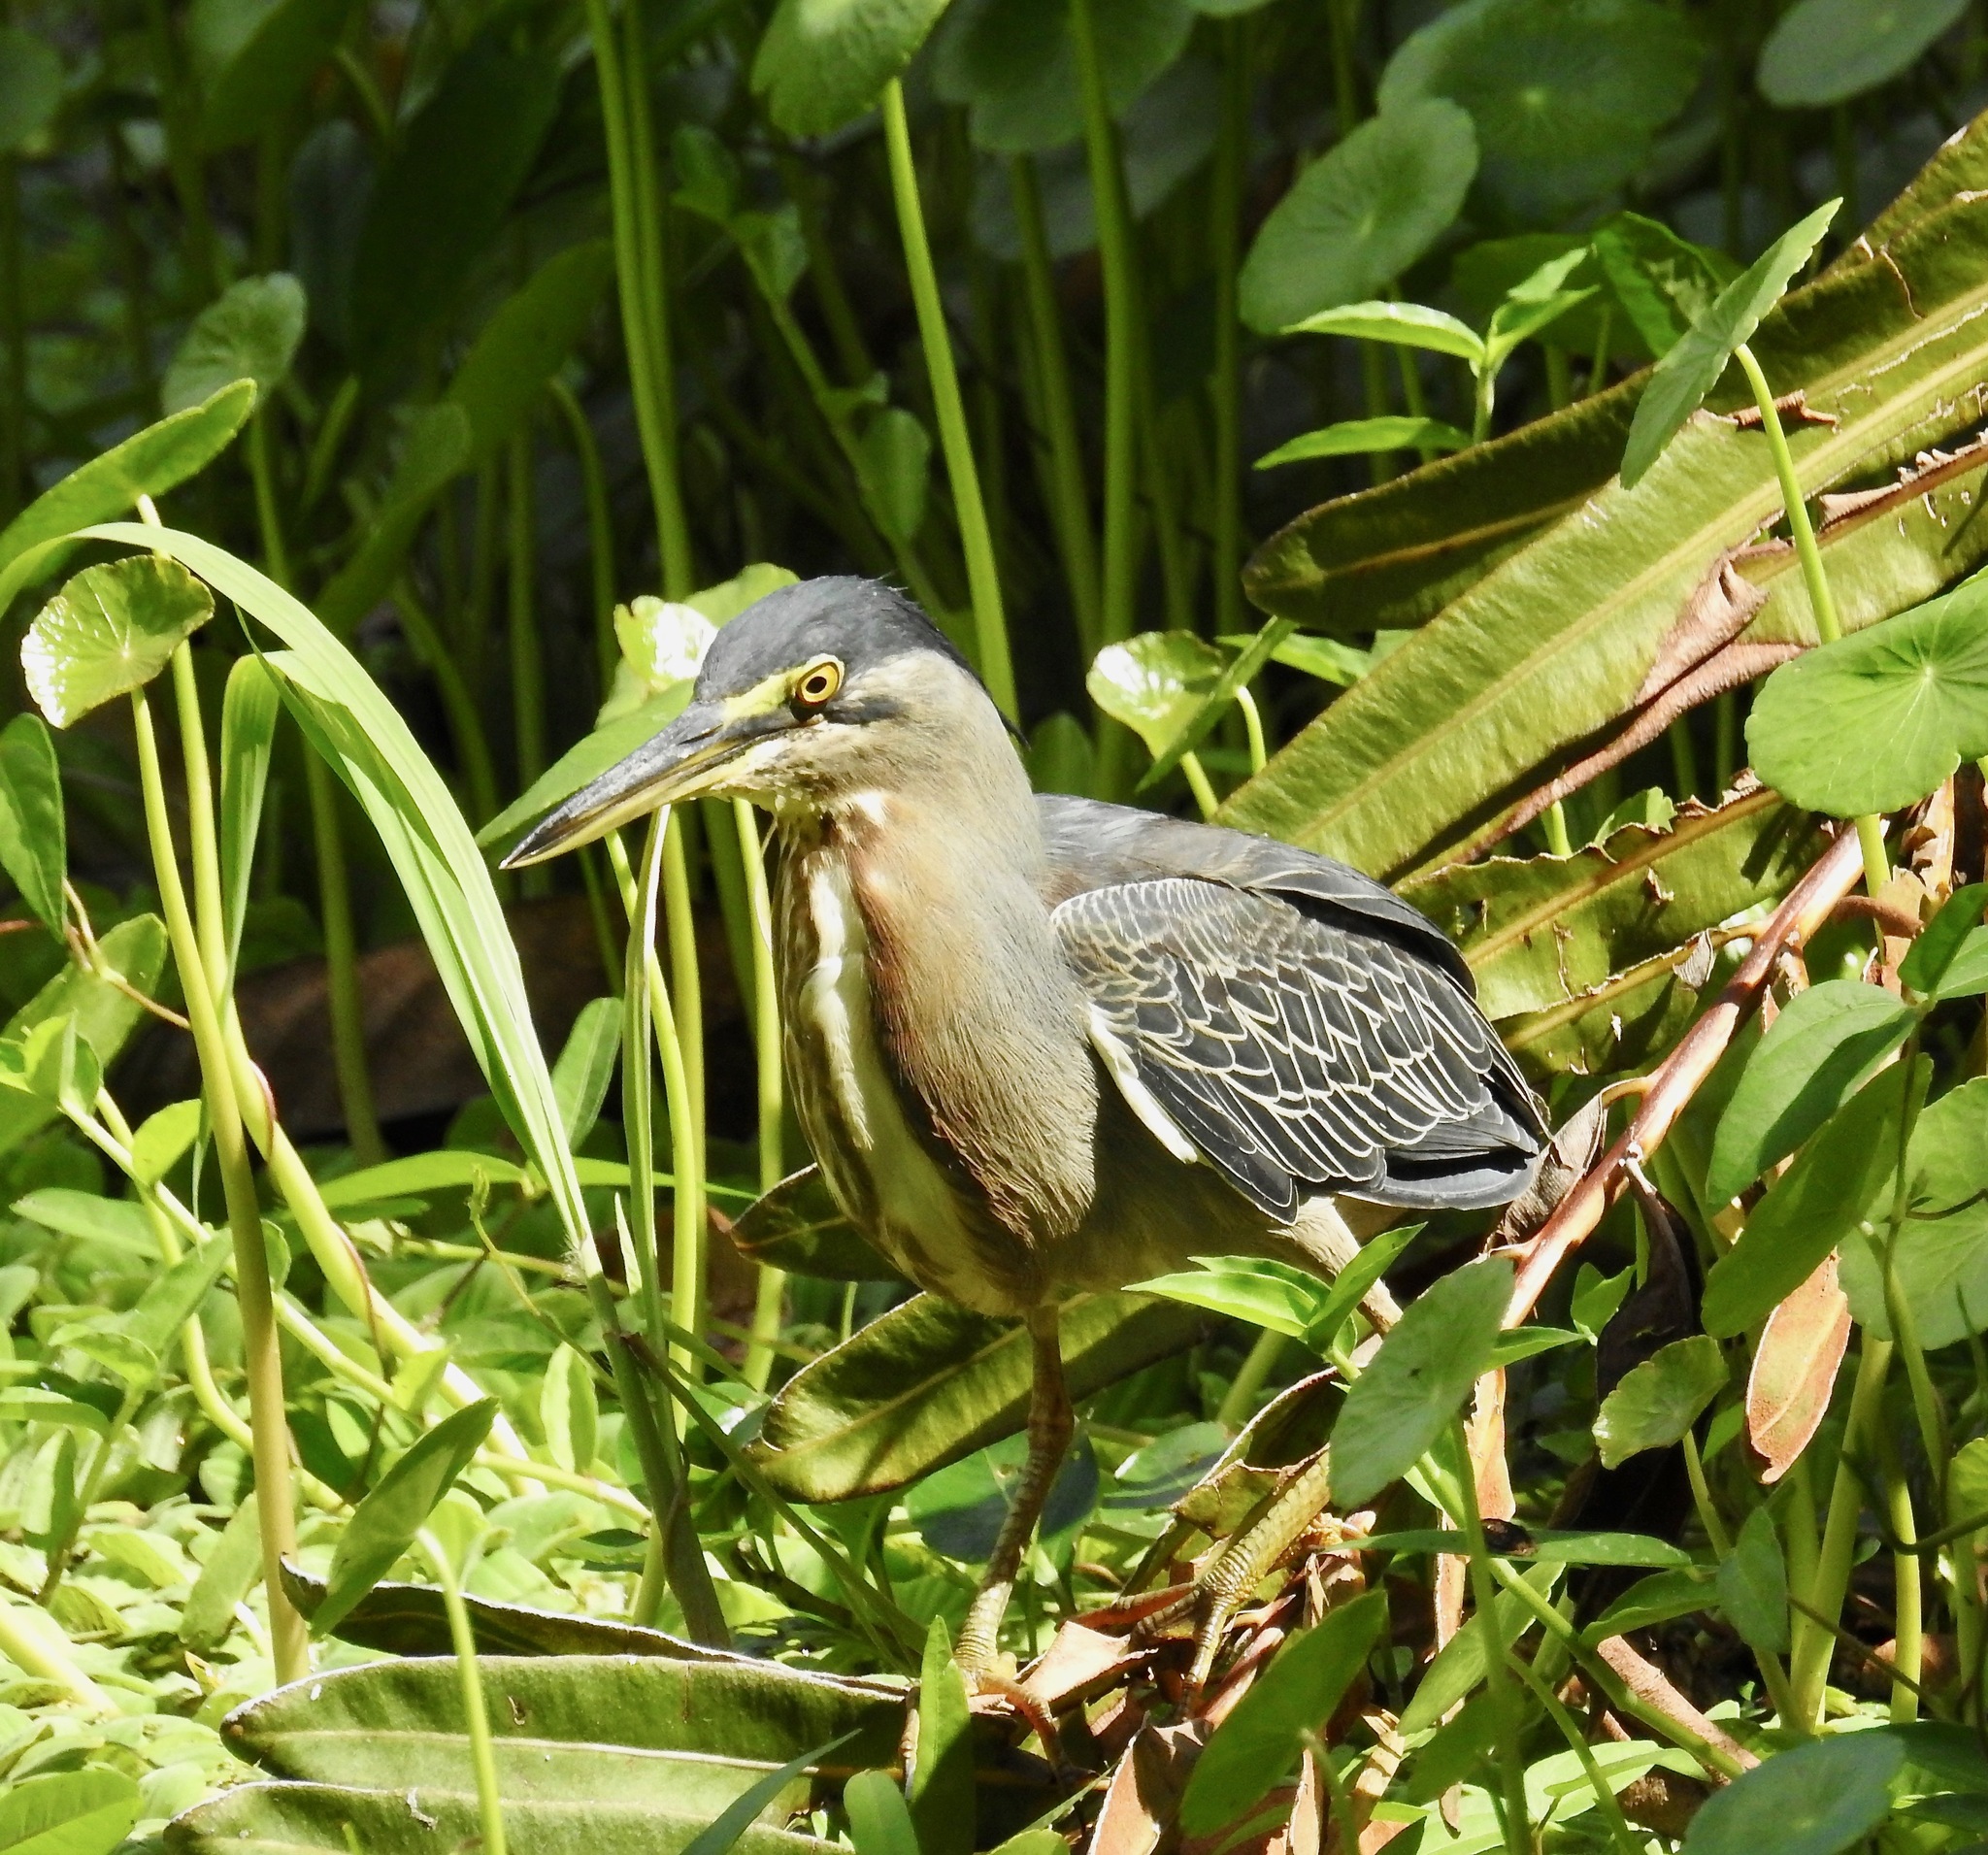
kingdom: Animalia
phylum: Chordata
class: Aves
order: Pelecaniformes
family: Ardeidae
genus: Butorides
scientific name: Butorides striata
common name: Striated heron
